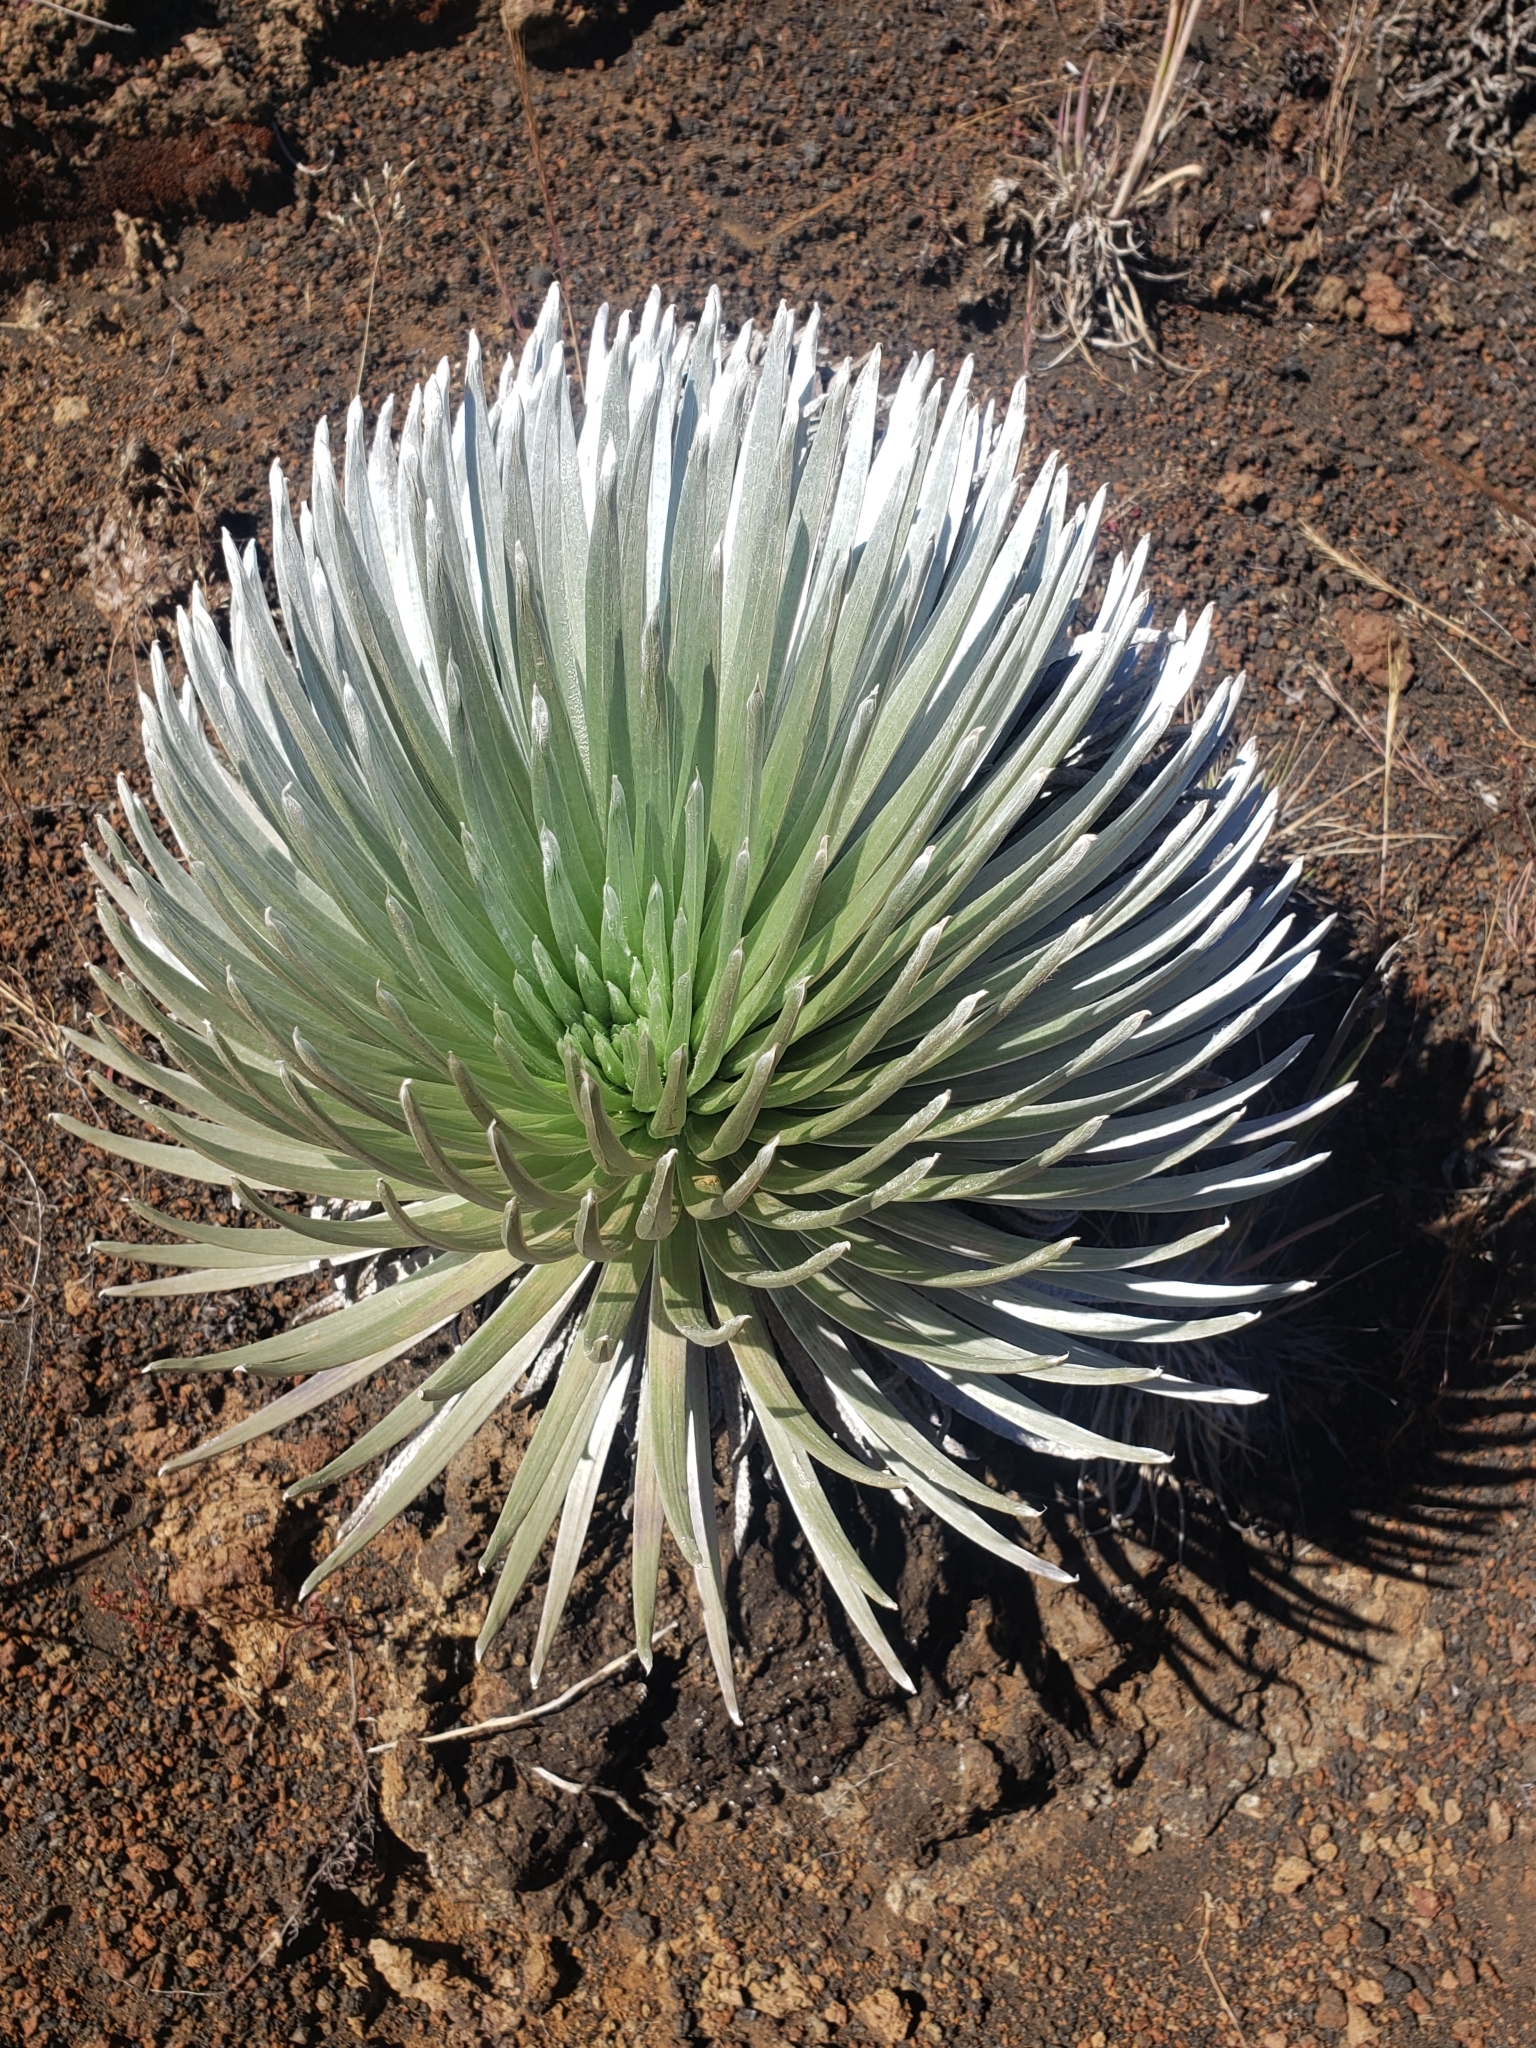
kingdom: Plantae
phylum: Tracheophyta
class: Magnoliopsida
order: Asterales
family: Asteraceae
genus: Argyroxiphium
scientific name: Argyroxiphium sandwicense
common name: Silversword
